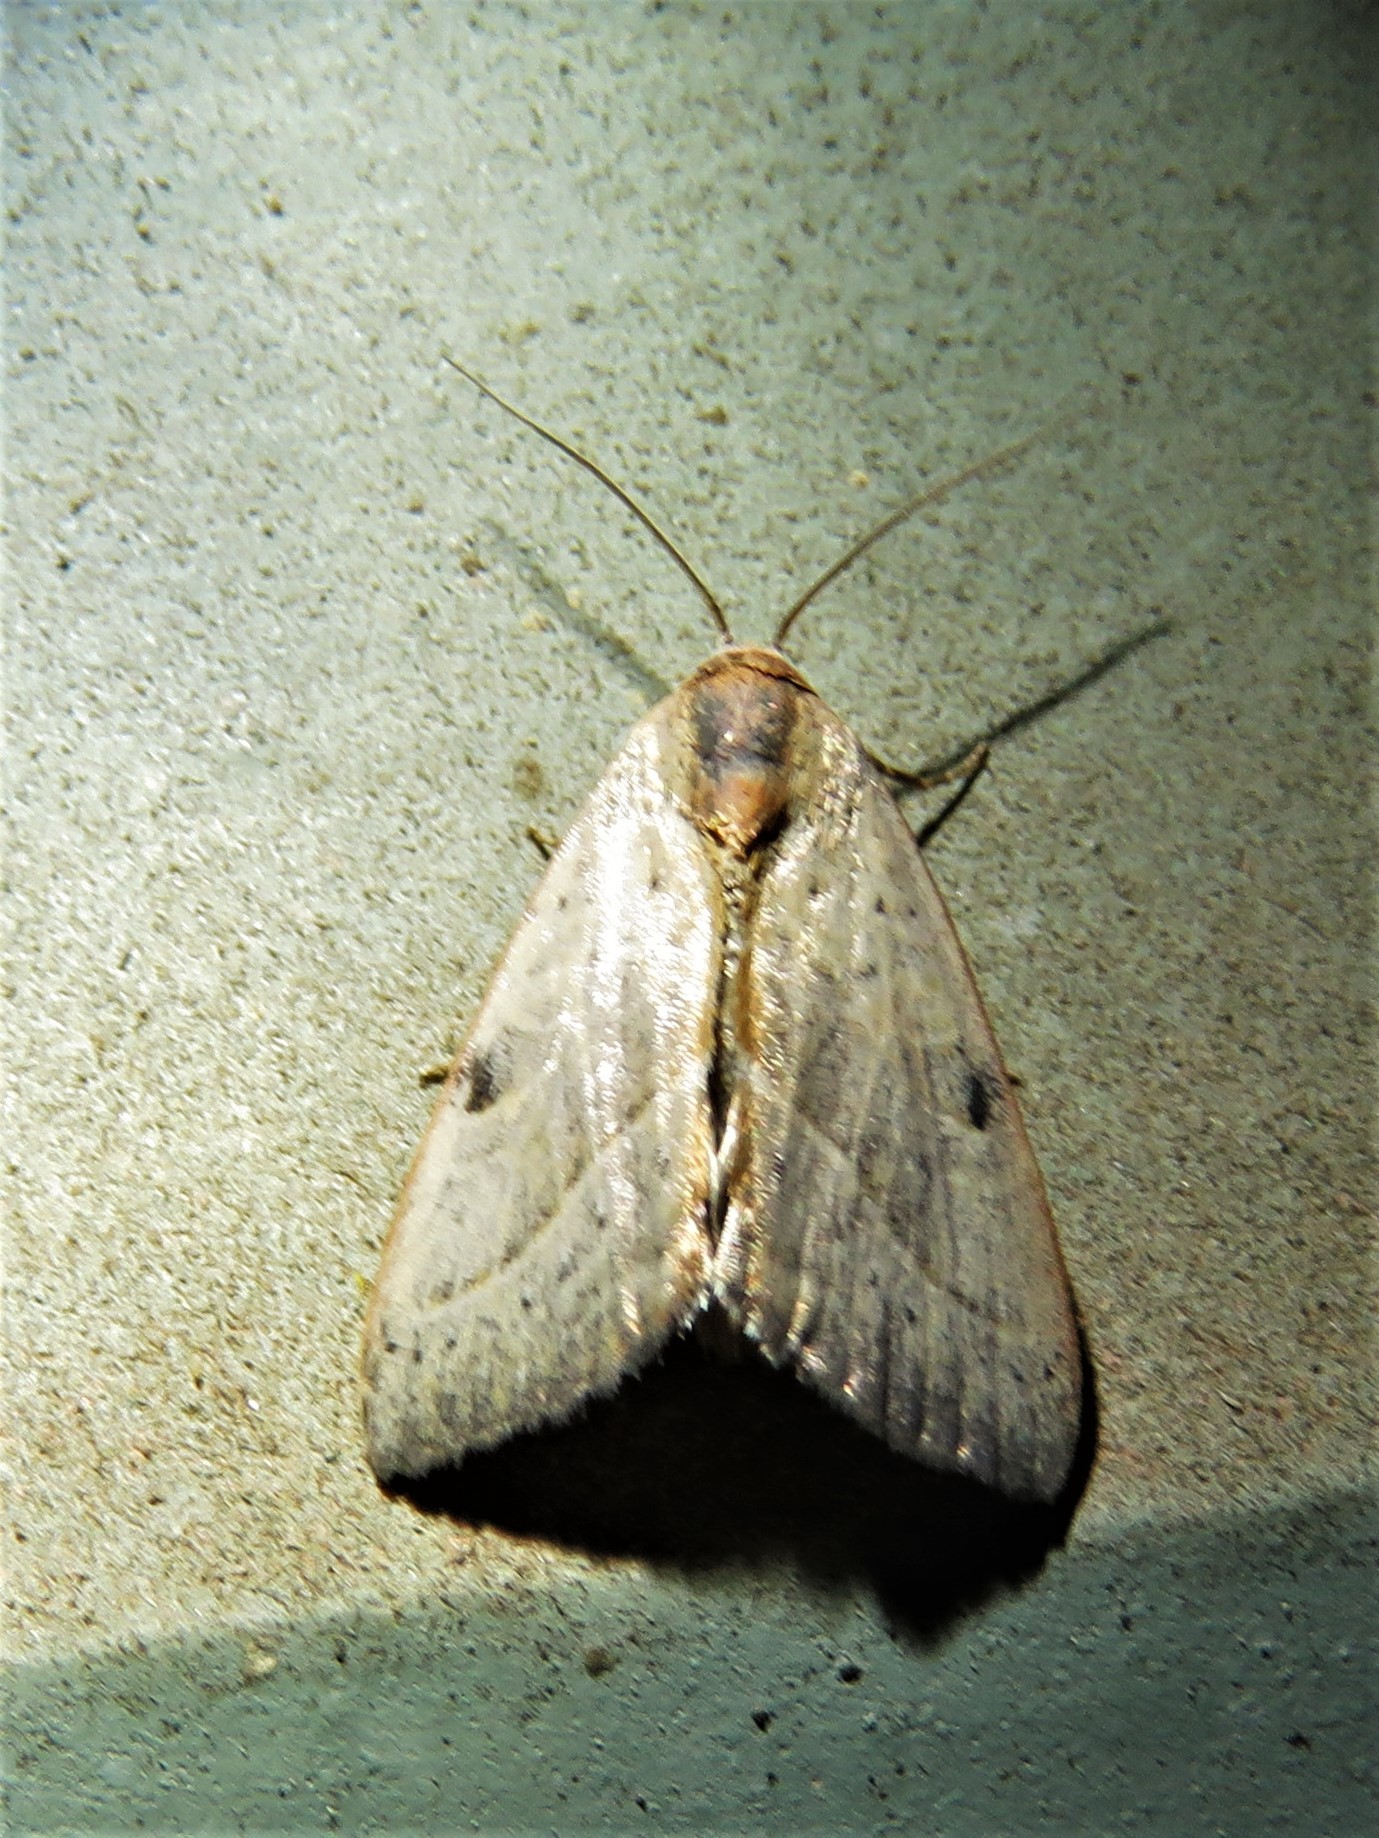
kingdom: Animalia
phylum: Arthropoda
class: Insecta
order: Lepidoptera
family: Noctuidae
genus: Galgula
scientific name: Galgula partita
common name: Wedgeling
